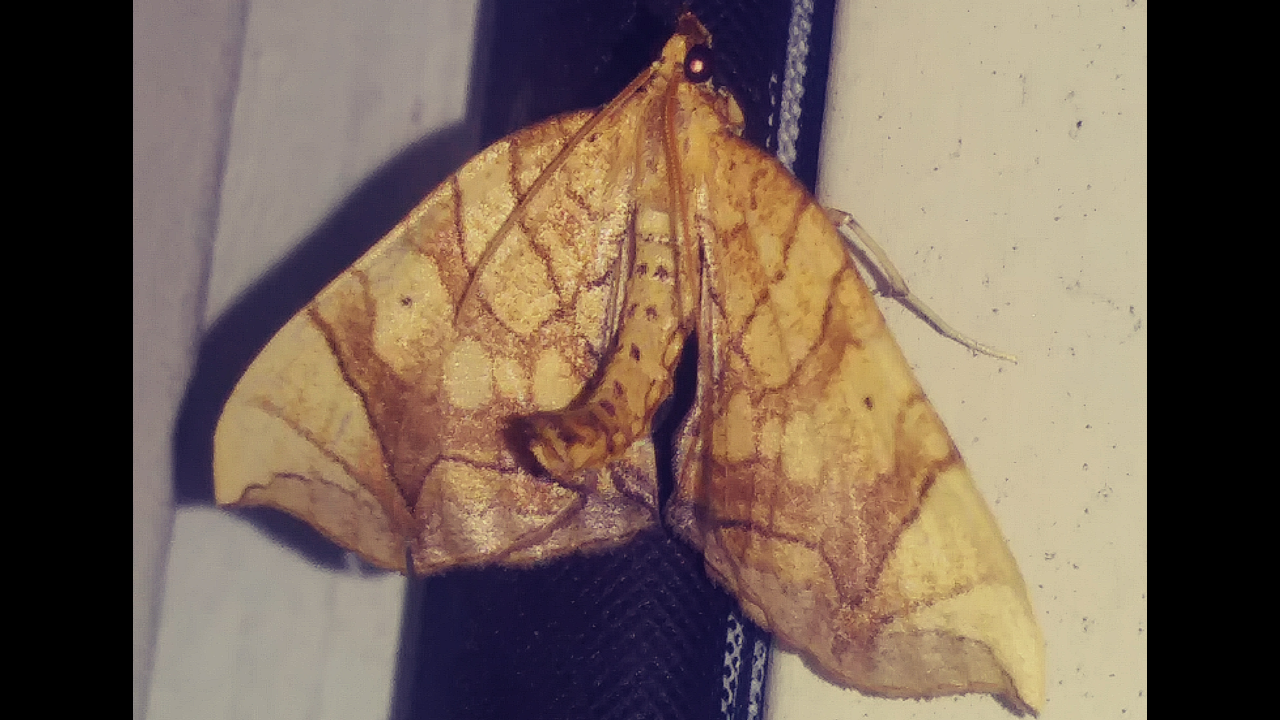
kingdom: Animalia
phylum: Arthropoda
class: Insecta
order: Lepidoptera
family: Geometridae
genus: Eulithis
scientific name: Eulithis gracilineata
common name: Greater grapevine looper moth
